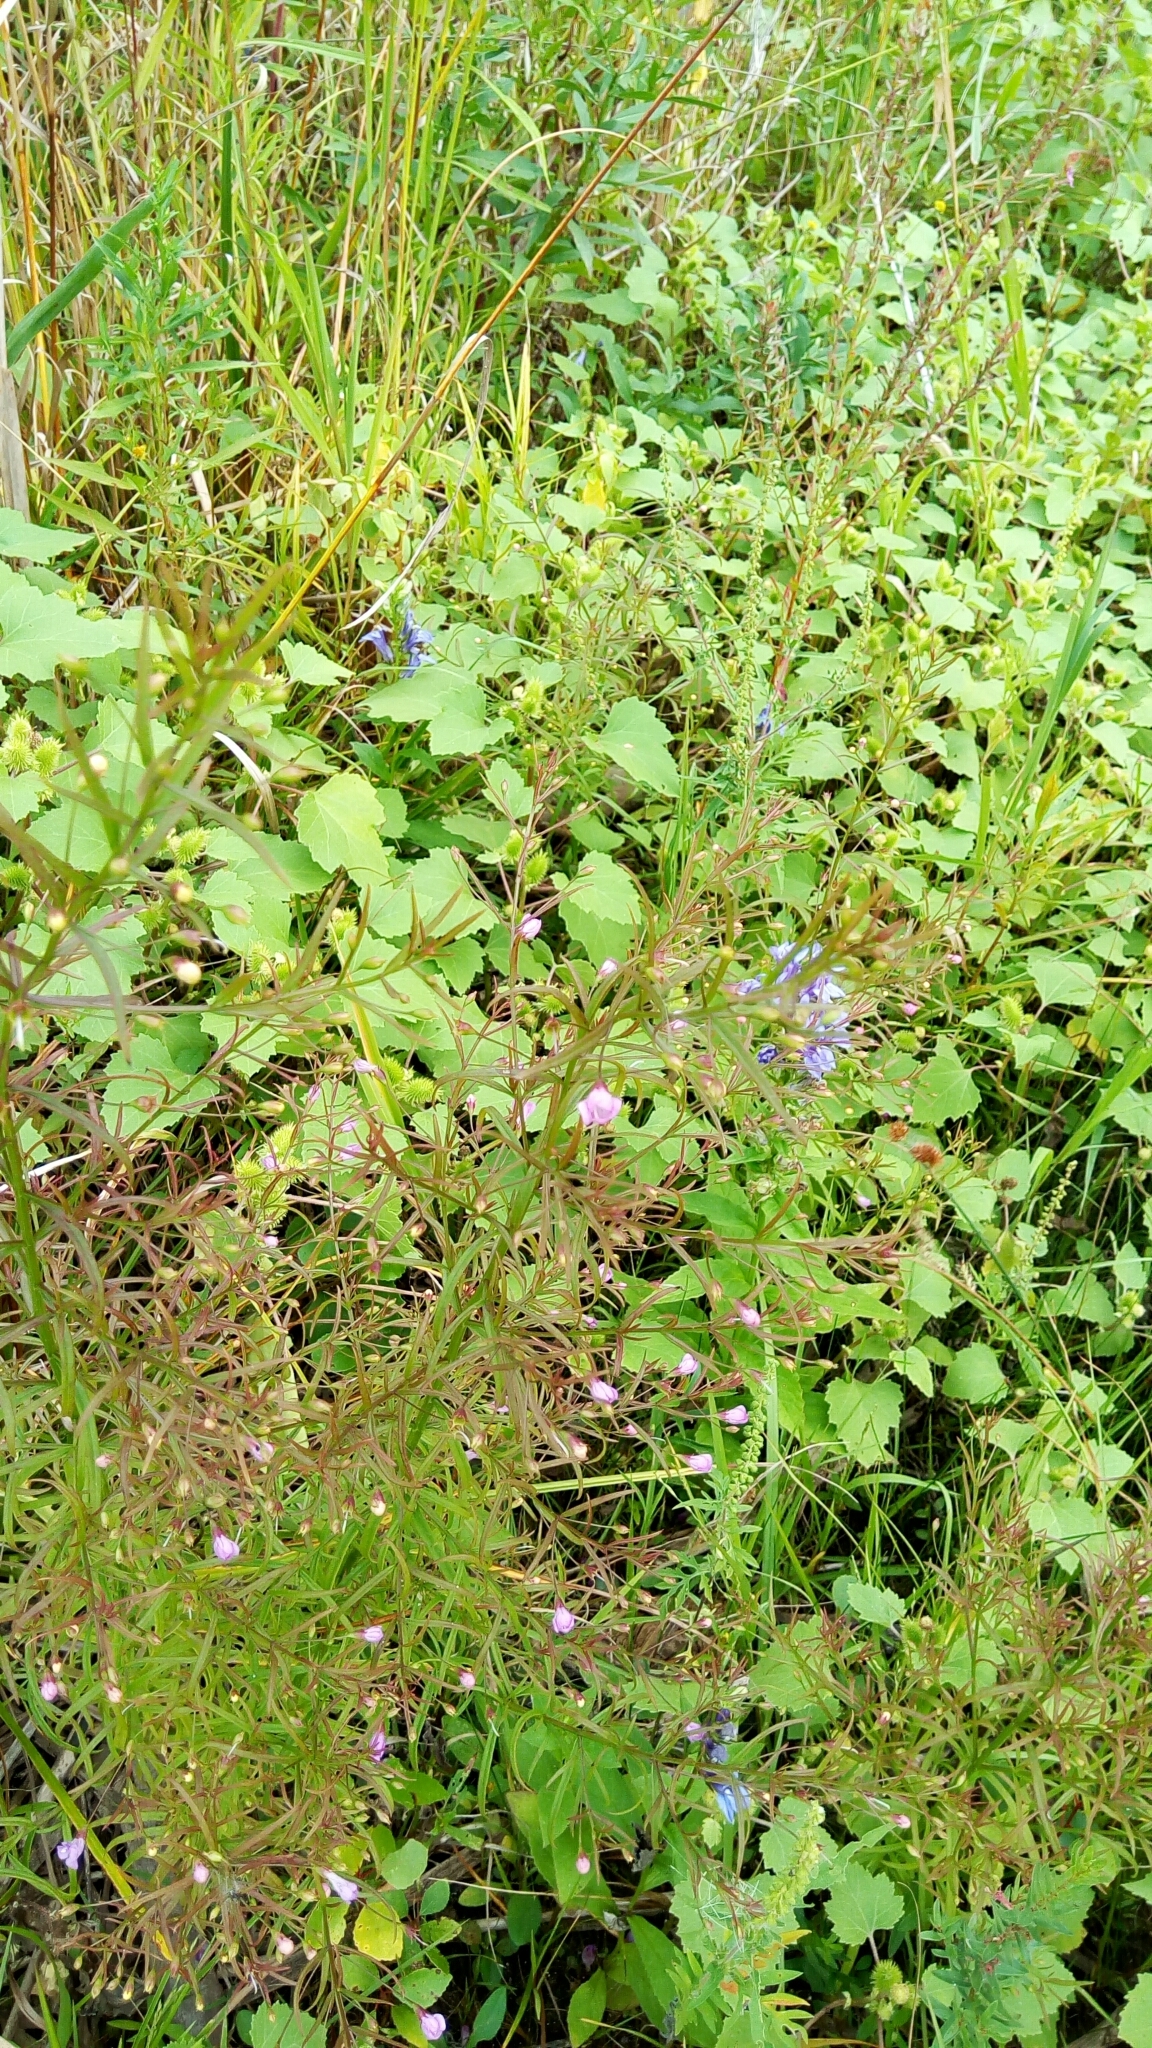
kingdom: Plantae
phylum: Tracheophyta
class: Magnoliopsida
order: Lamiales
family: Orobanchaceae
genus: Agalinis
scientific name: Agalinis tenuifolia
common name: Slender agalinis
